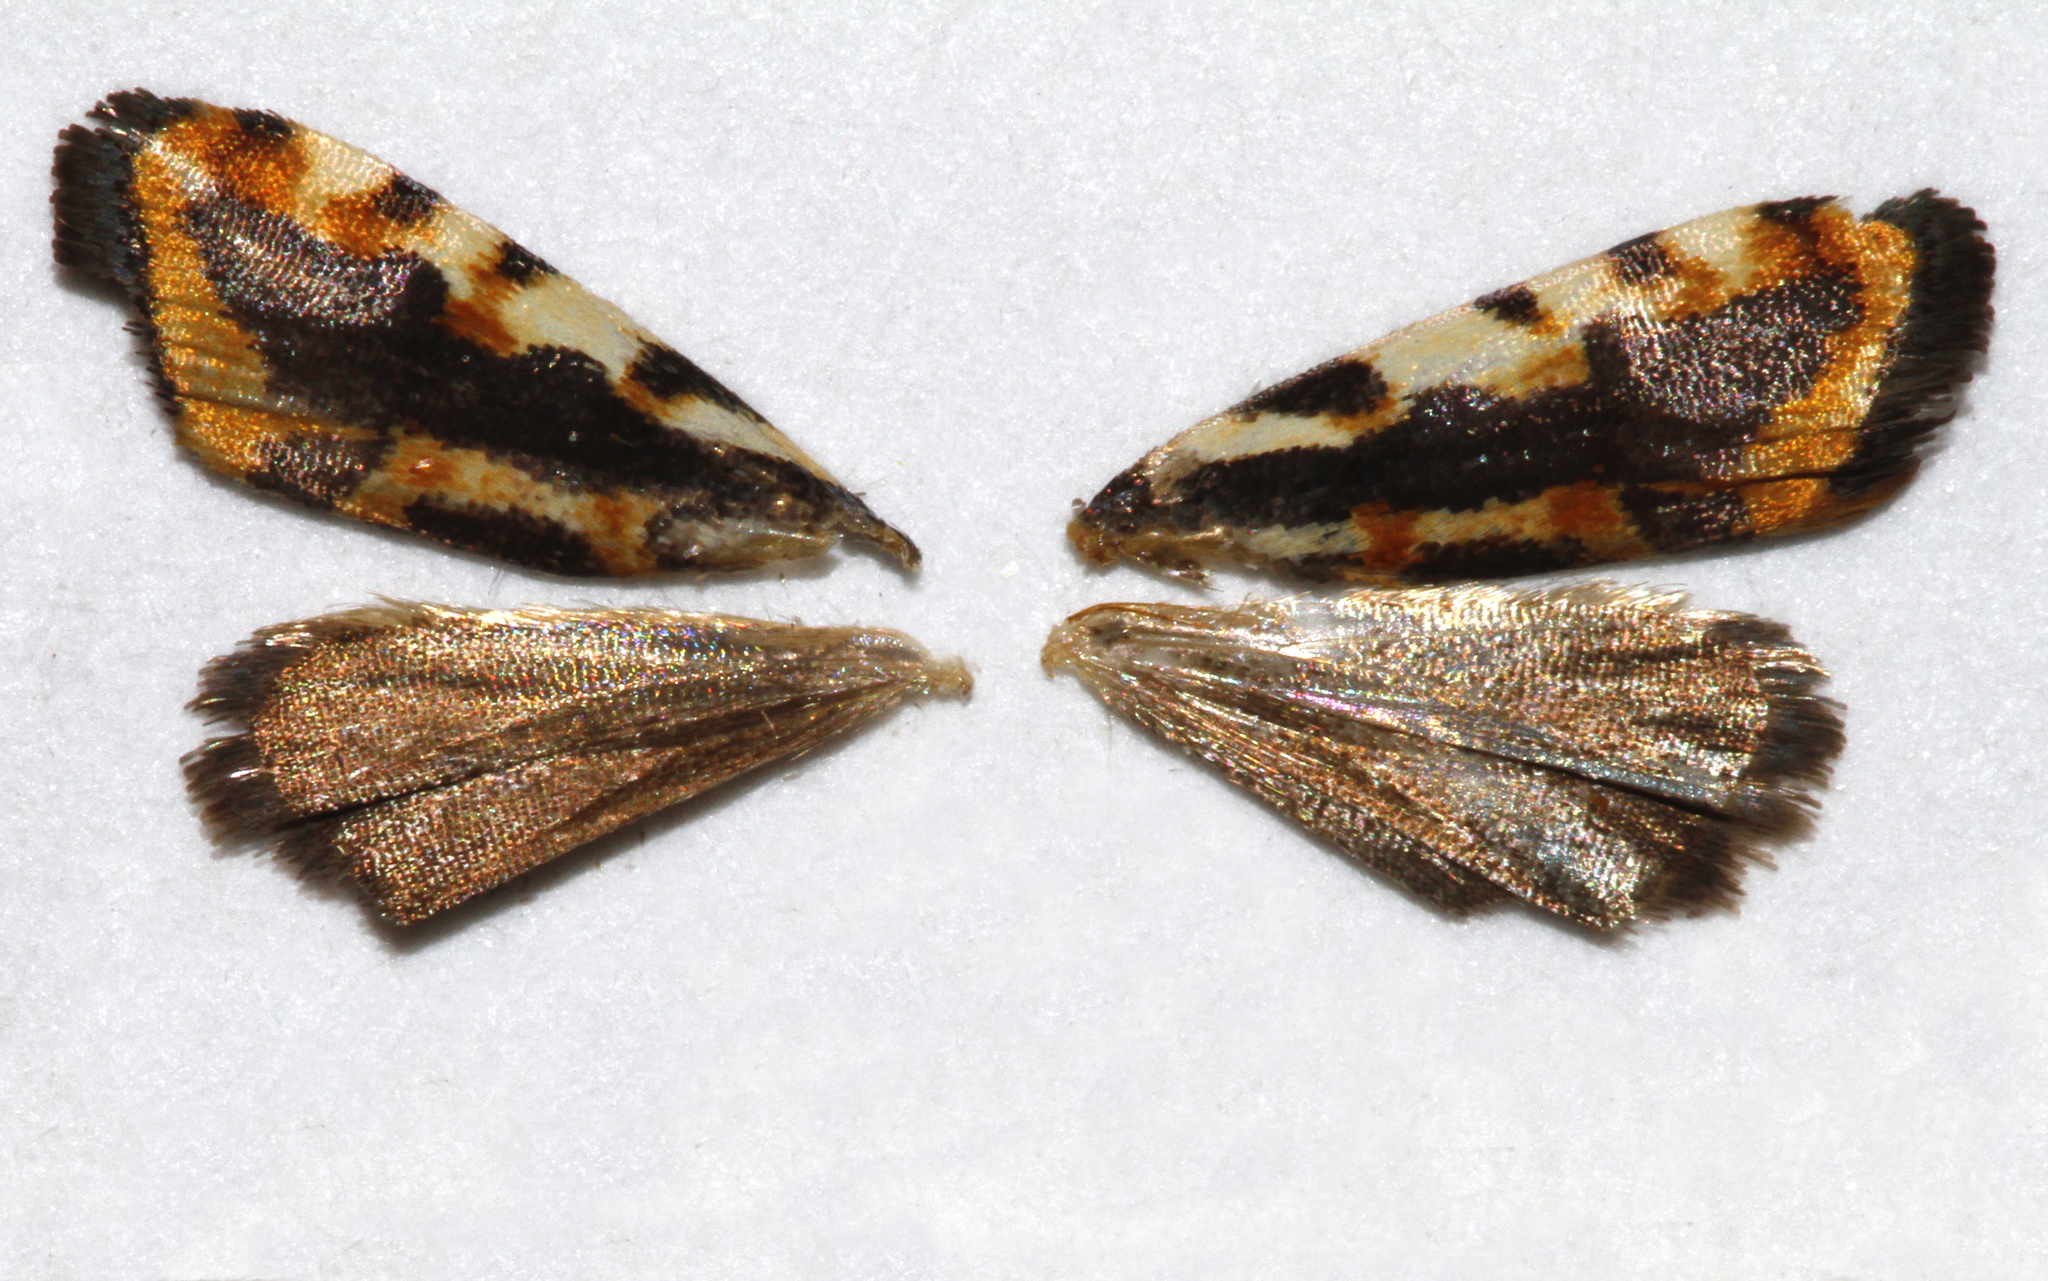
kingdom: Animalia
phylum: Arthropoda
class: Insecta
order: Lepidoptera
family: Noctuidae
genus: Acontia
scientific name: Acontia leo
